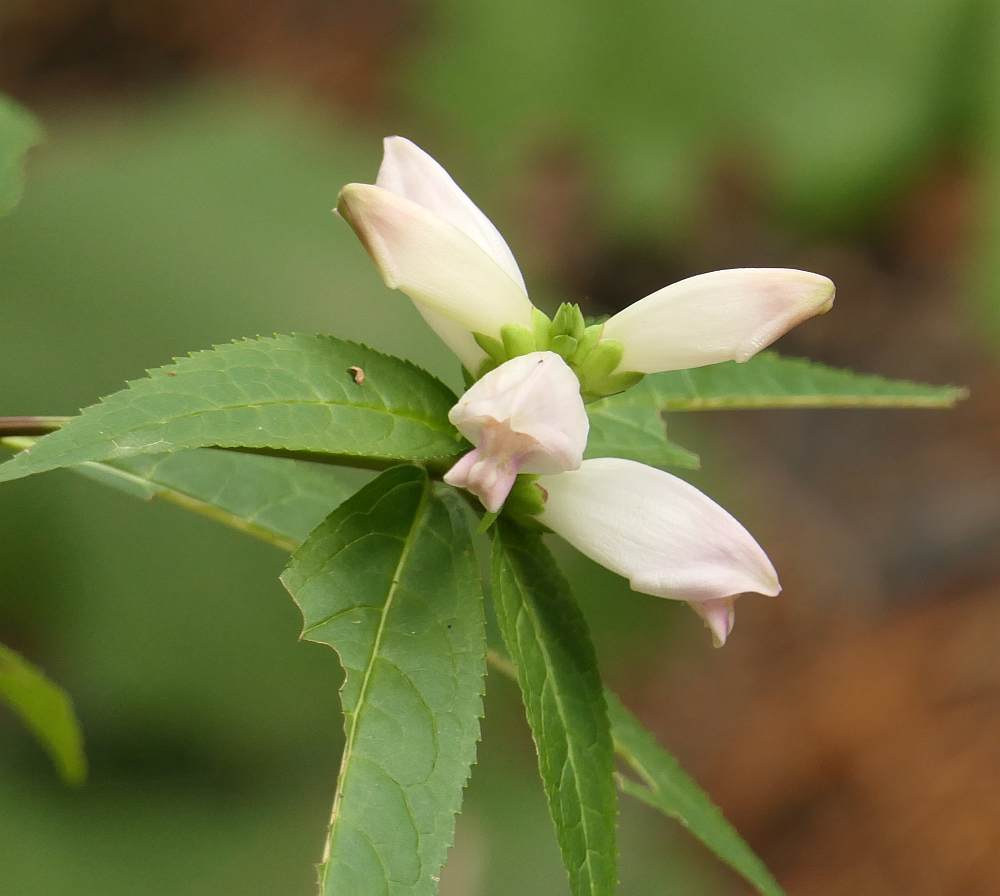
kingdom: Plantae
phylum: Tracheophyta
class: Magnoliopsida
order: Lamiales
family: Plantaginaceae
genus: Chelone
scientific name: Chelone glabra
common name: Snakehead
